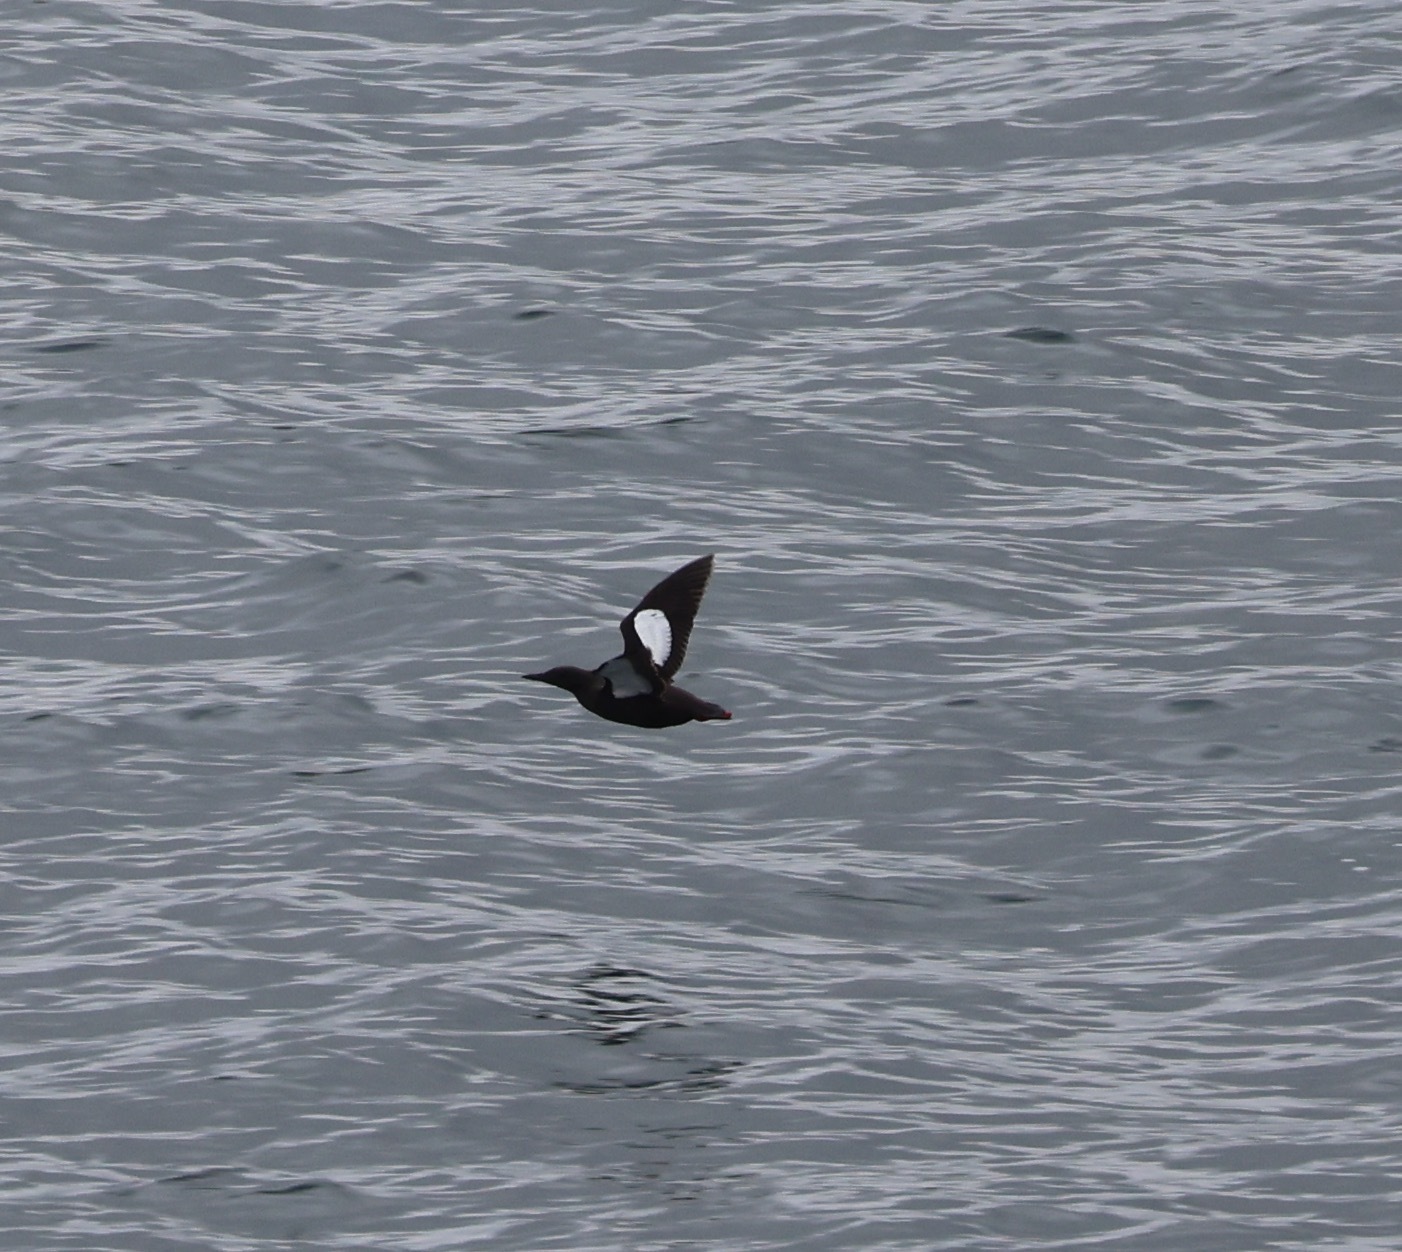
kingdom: Animalia
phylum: Chordata
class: Aves
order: Charadriiformes
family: Alcidae
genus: Cepphus
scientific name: Cepphus grylle
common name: Black guillemot
